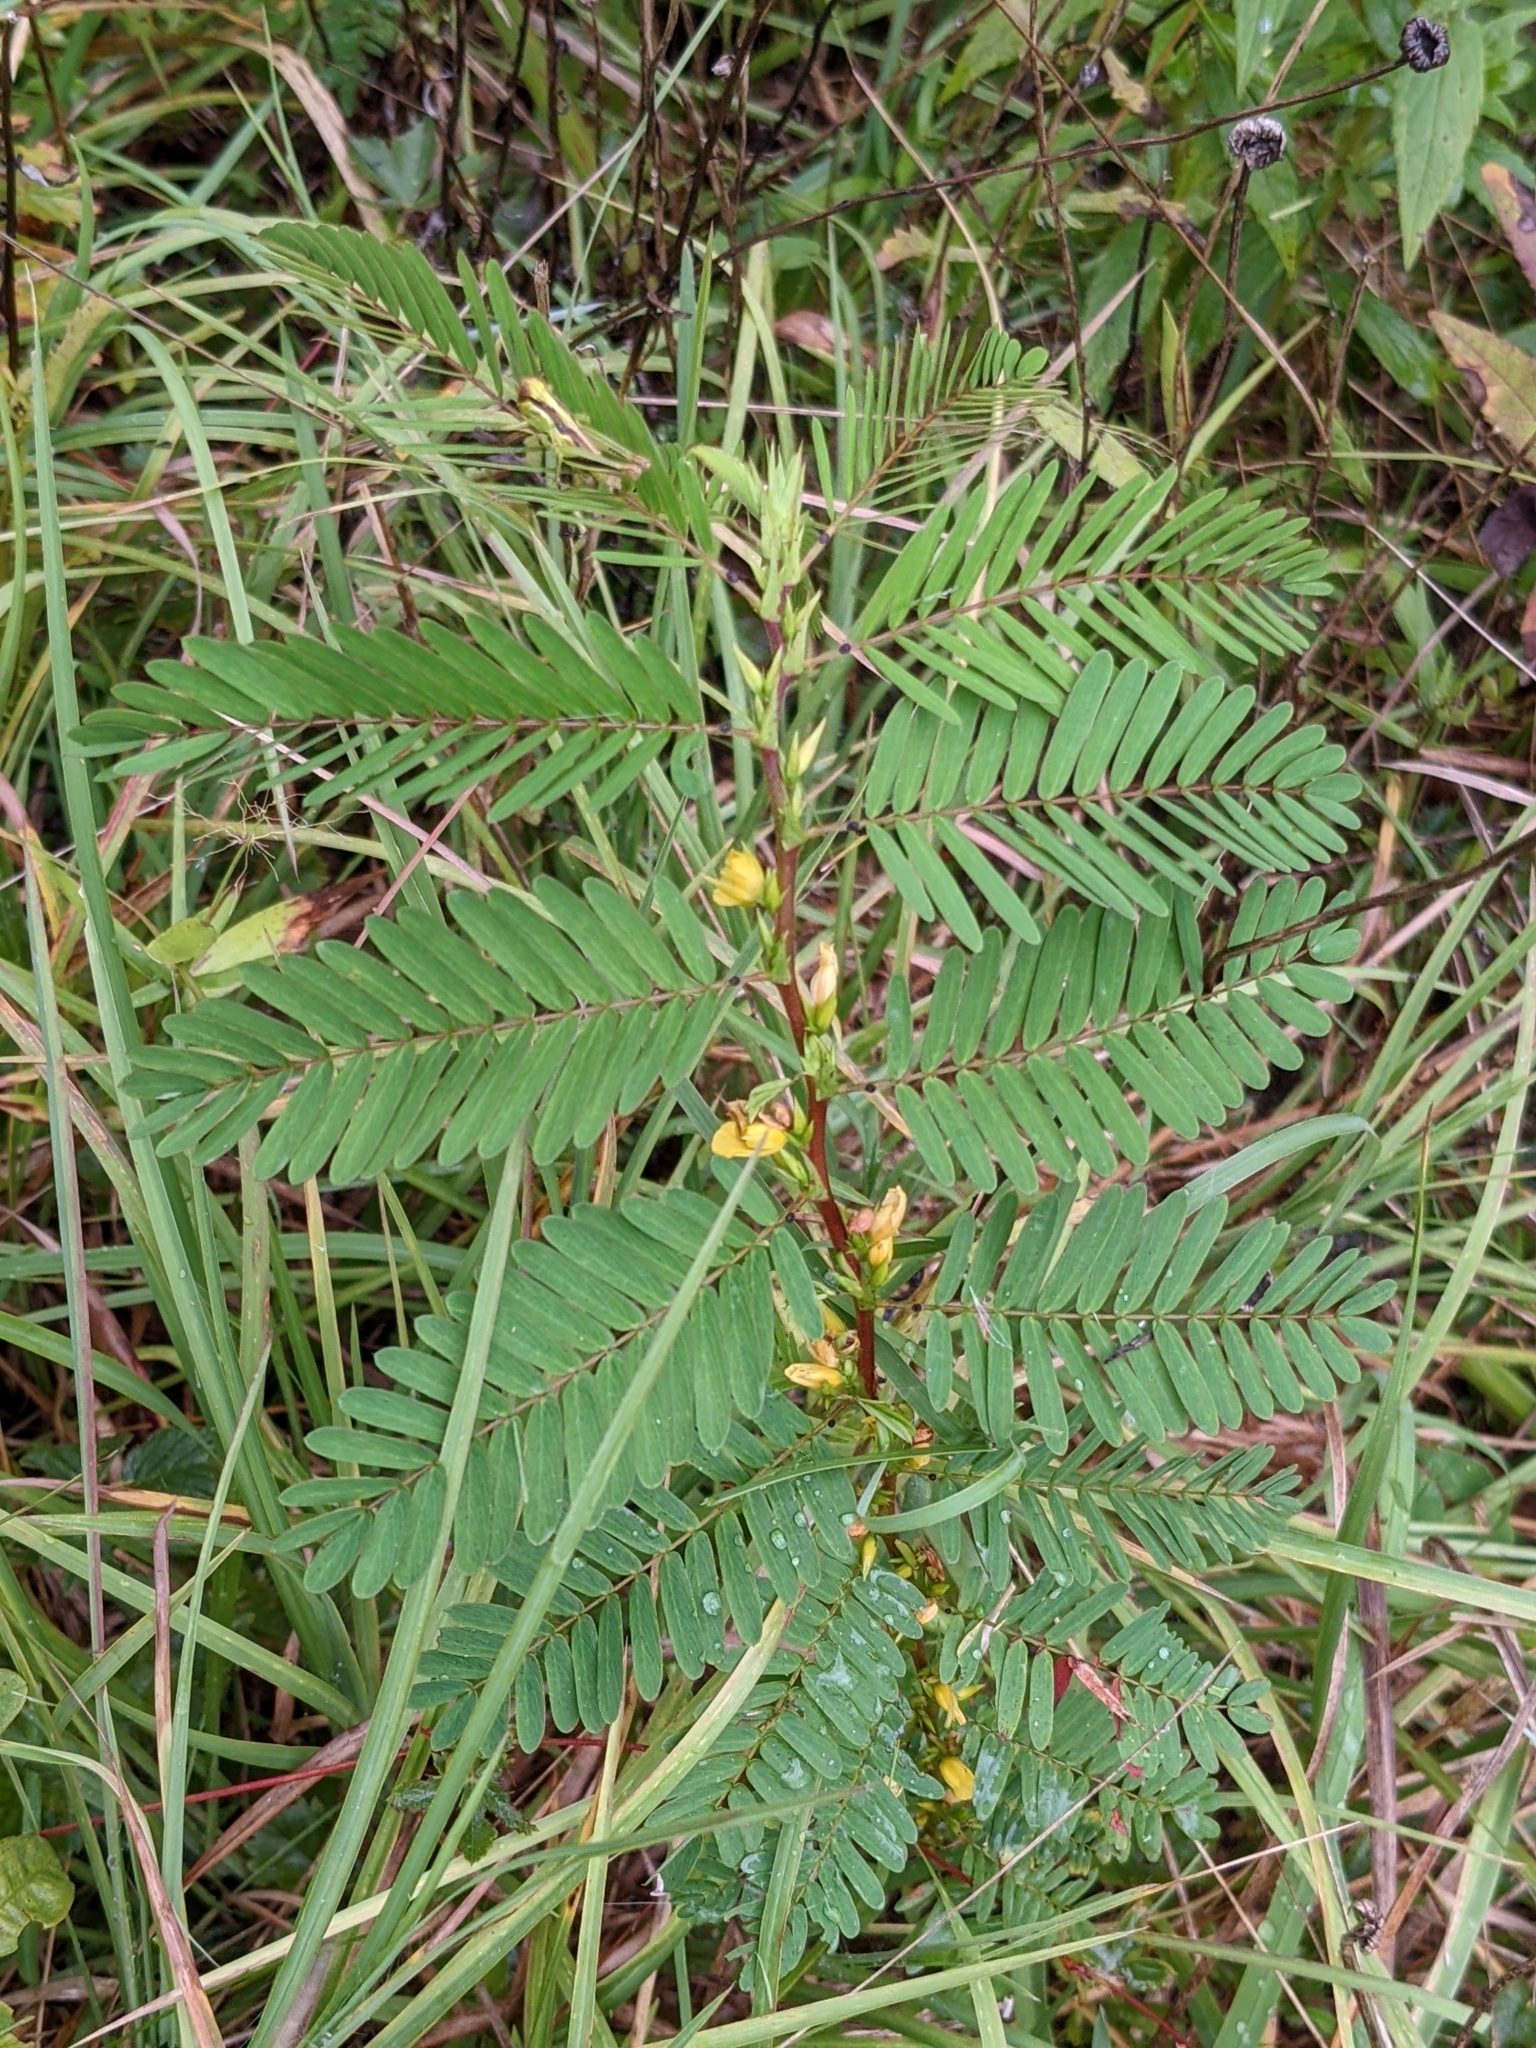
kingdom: Plantae
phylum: Tracheophyta
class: Magnoliopsida
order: Fabales
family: Fabaceae
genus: Chamaecrista
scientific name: Chamaecrista nictitans
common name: Sensitive cassia
